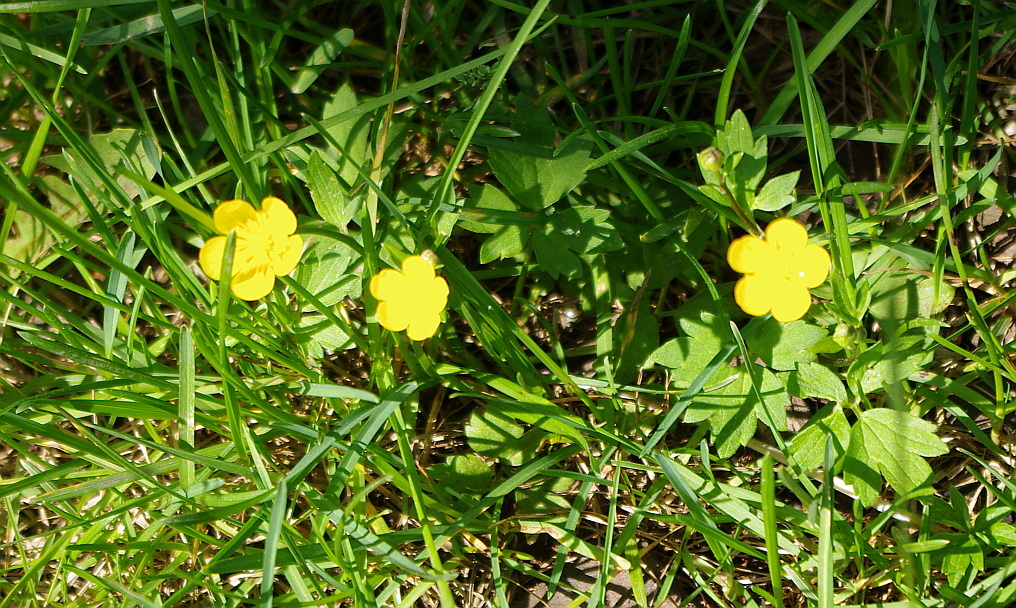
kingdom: Plantae
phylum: Tracheophyta
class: Magnoliopsida
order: Ranunculales
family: Ranunculaceae
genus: Ranunculus
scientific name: Ranunculus repens
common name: Creeping buttercup
